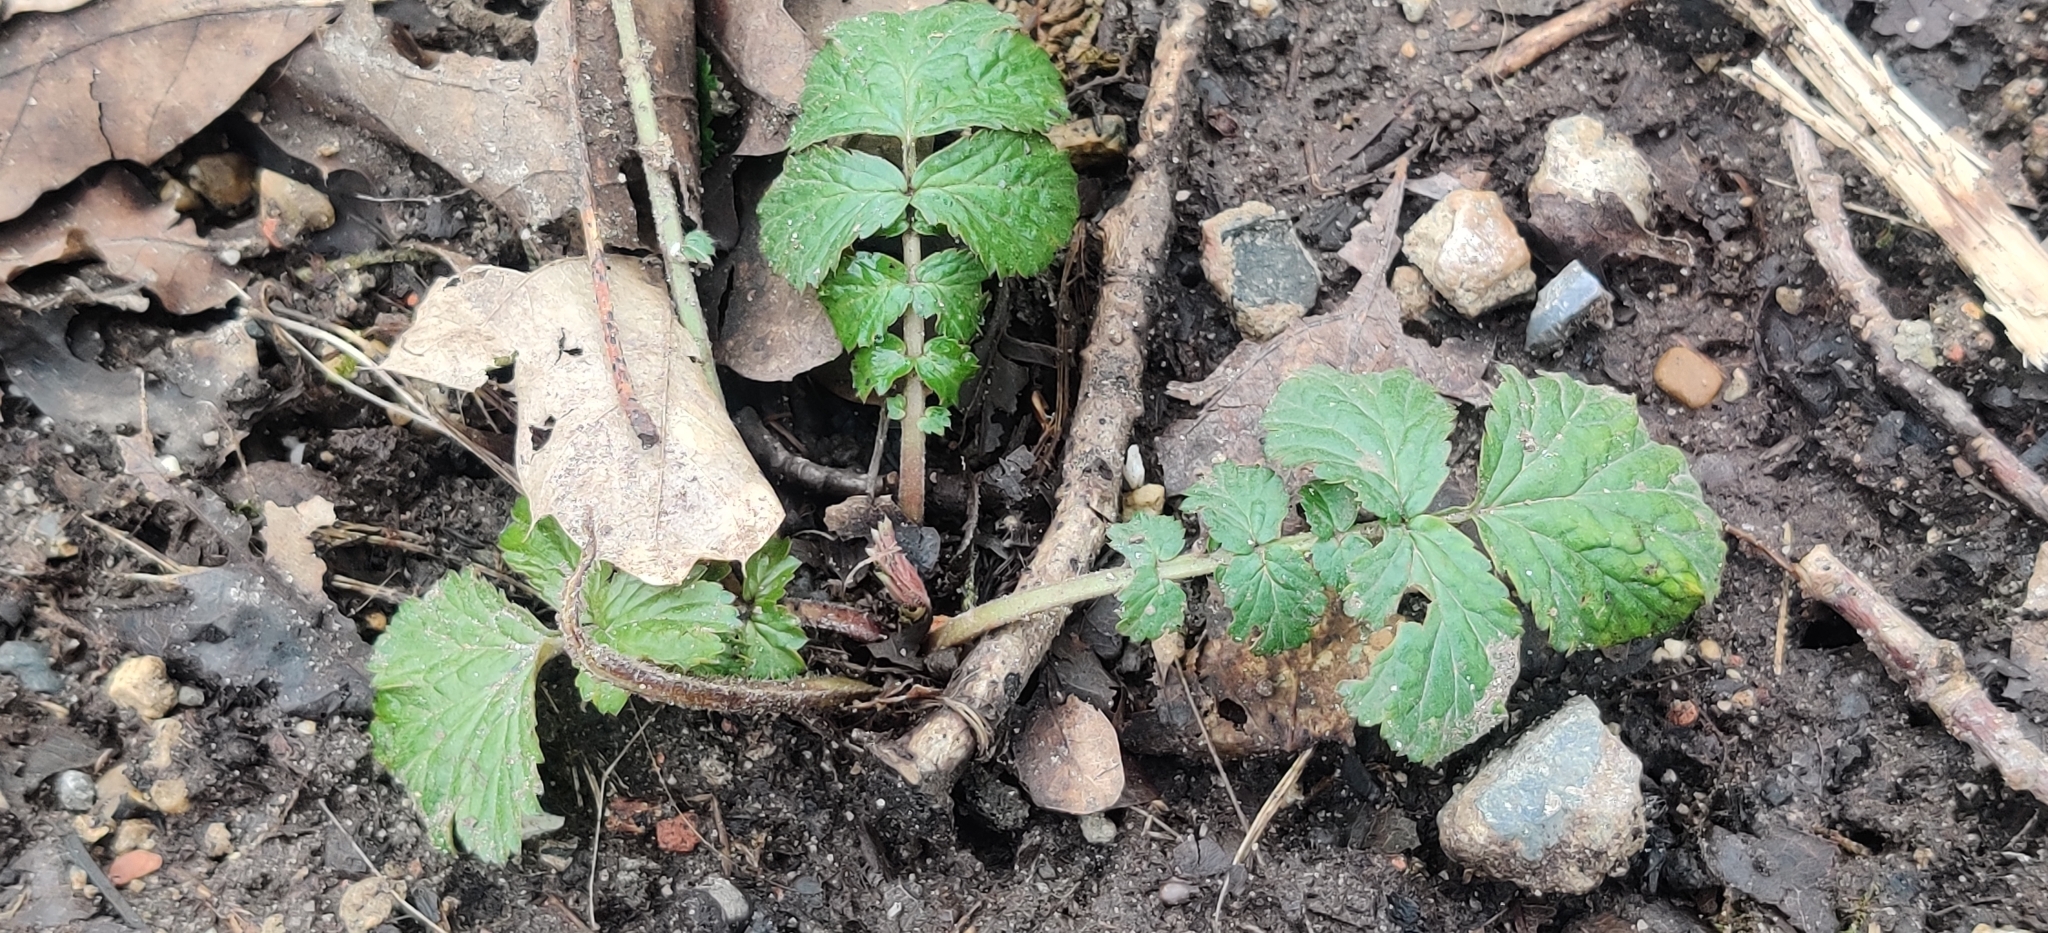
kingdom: Plantae
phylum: Tracheophyta
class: Magnoliopsida
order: Rosales
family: Rosaceae
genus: Geum
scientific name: Geum urbanum
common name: Wood avens
